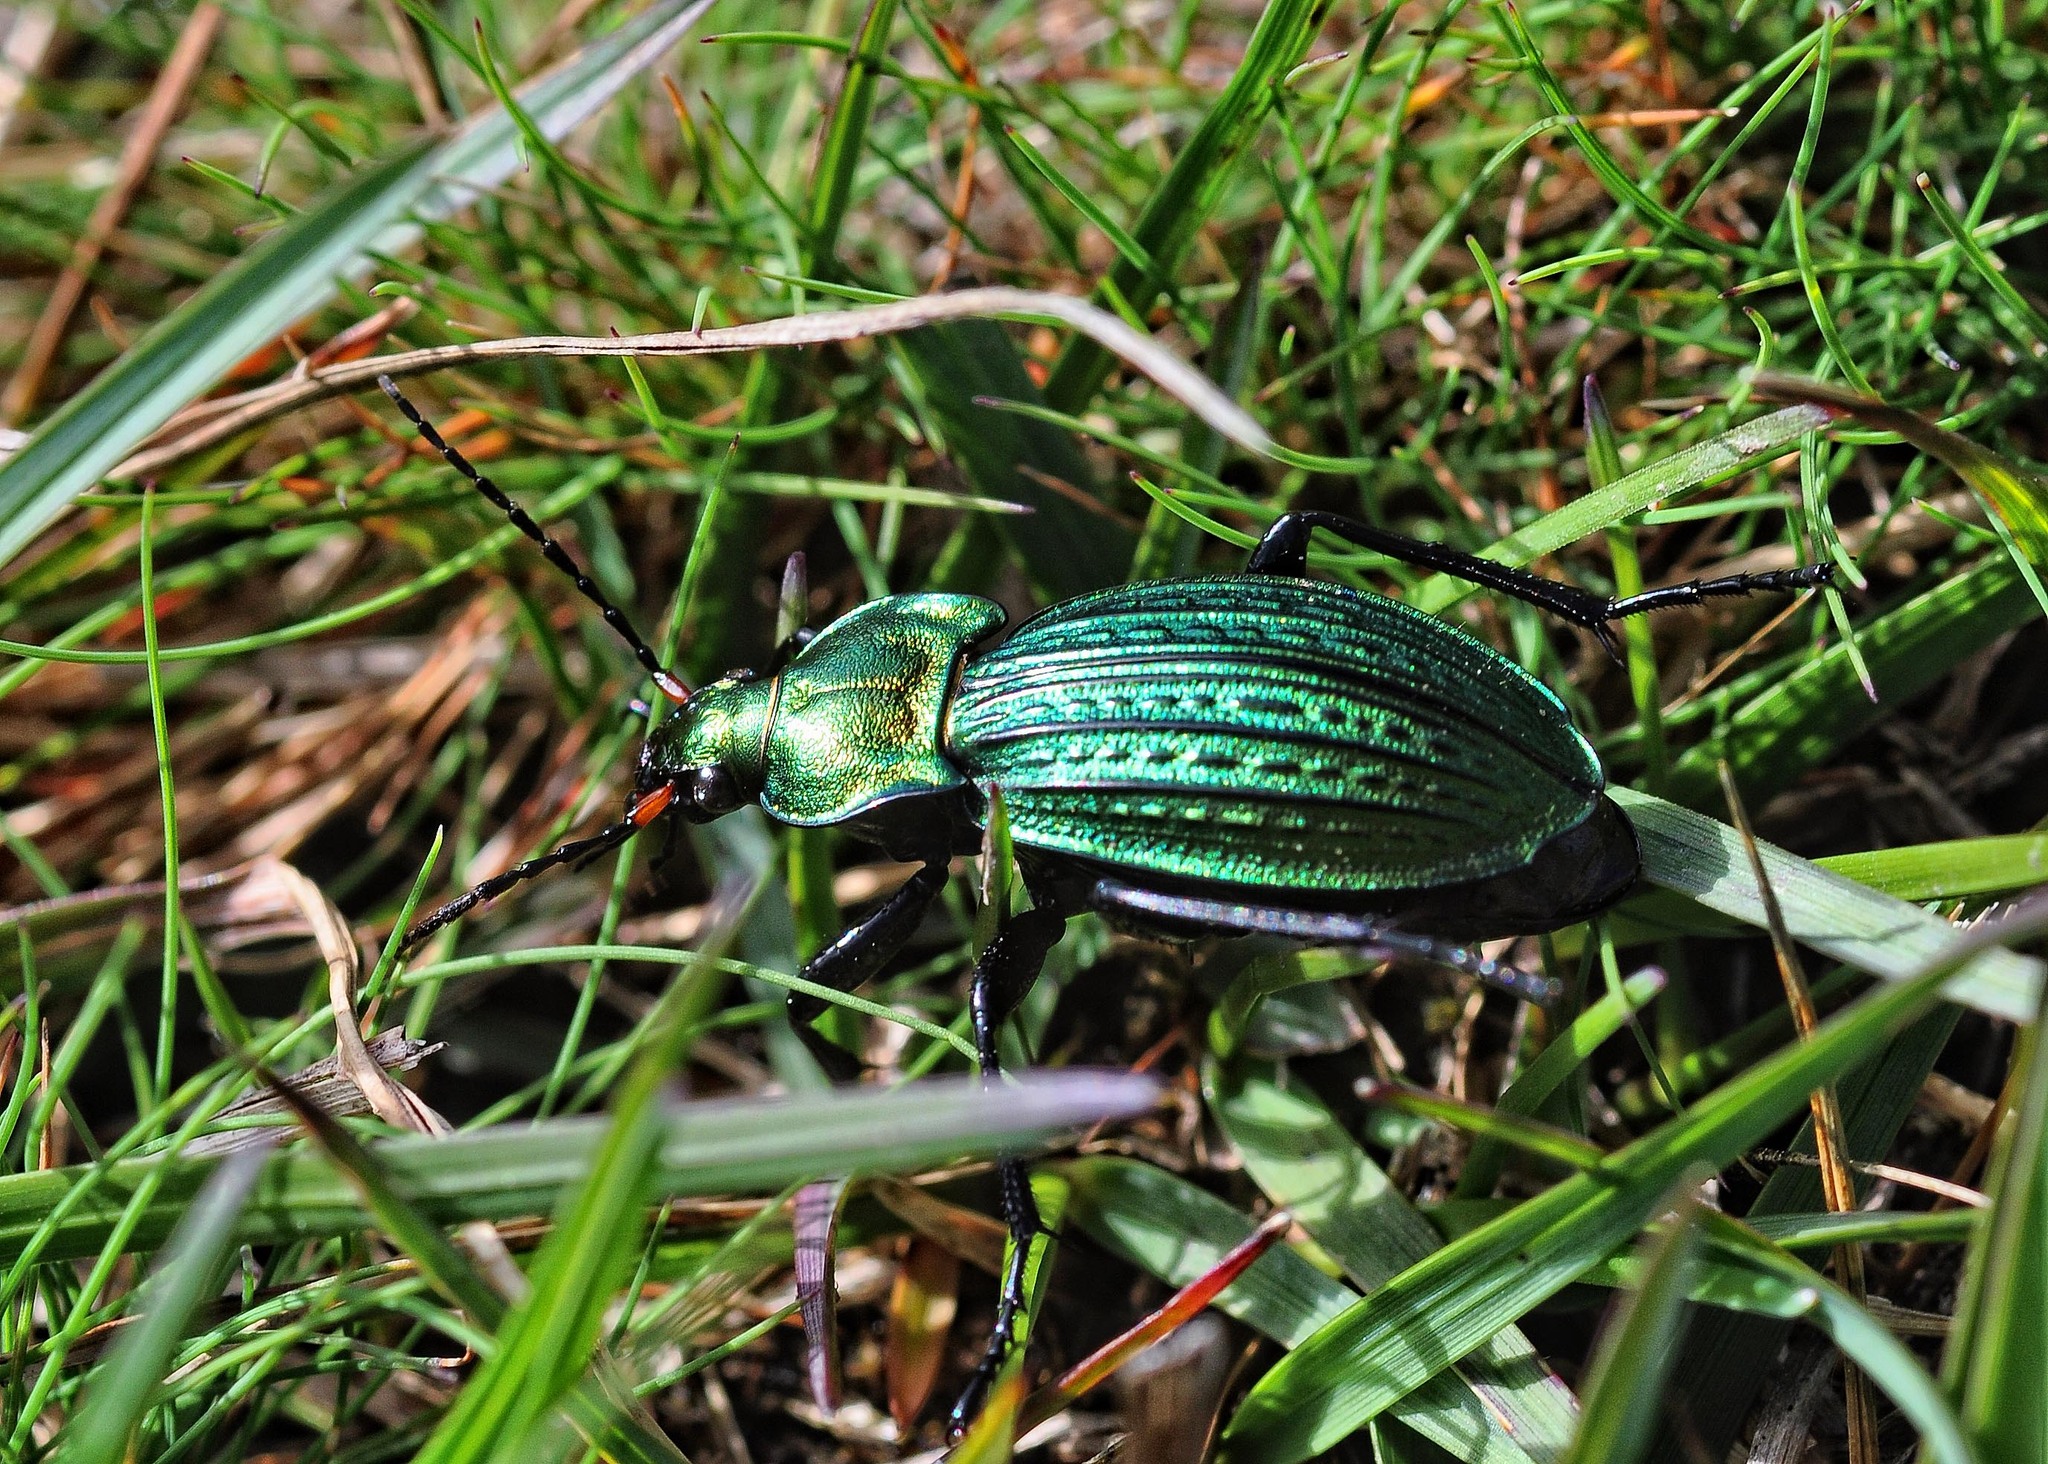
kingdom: Animalia
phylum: Arthropoda
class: Insecta
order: Coleoptera
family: Carabidae
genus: Carabus
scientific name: Carabus cancellatus
